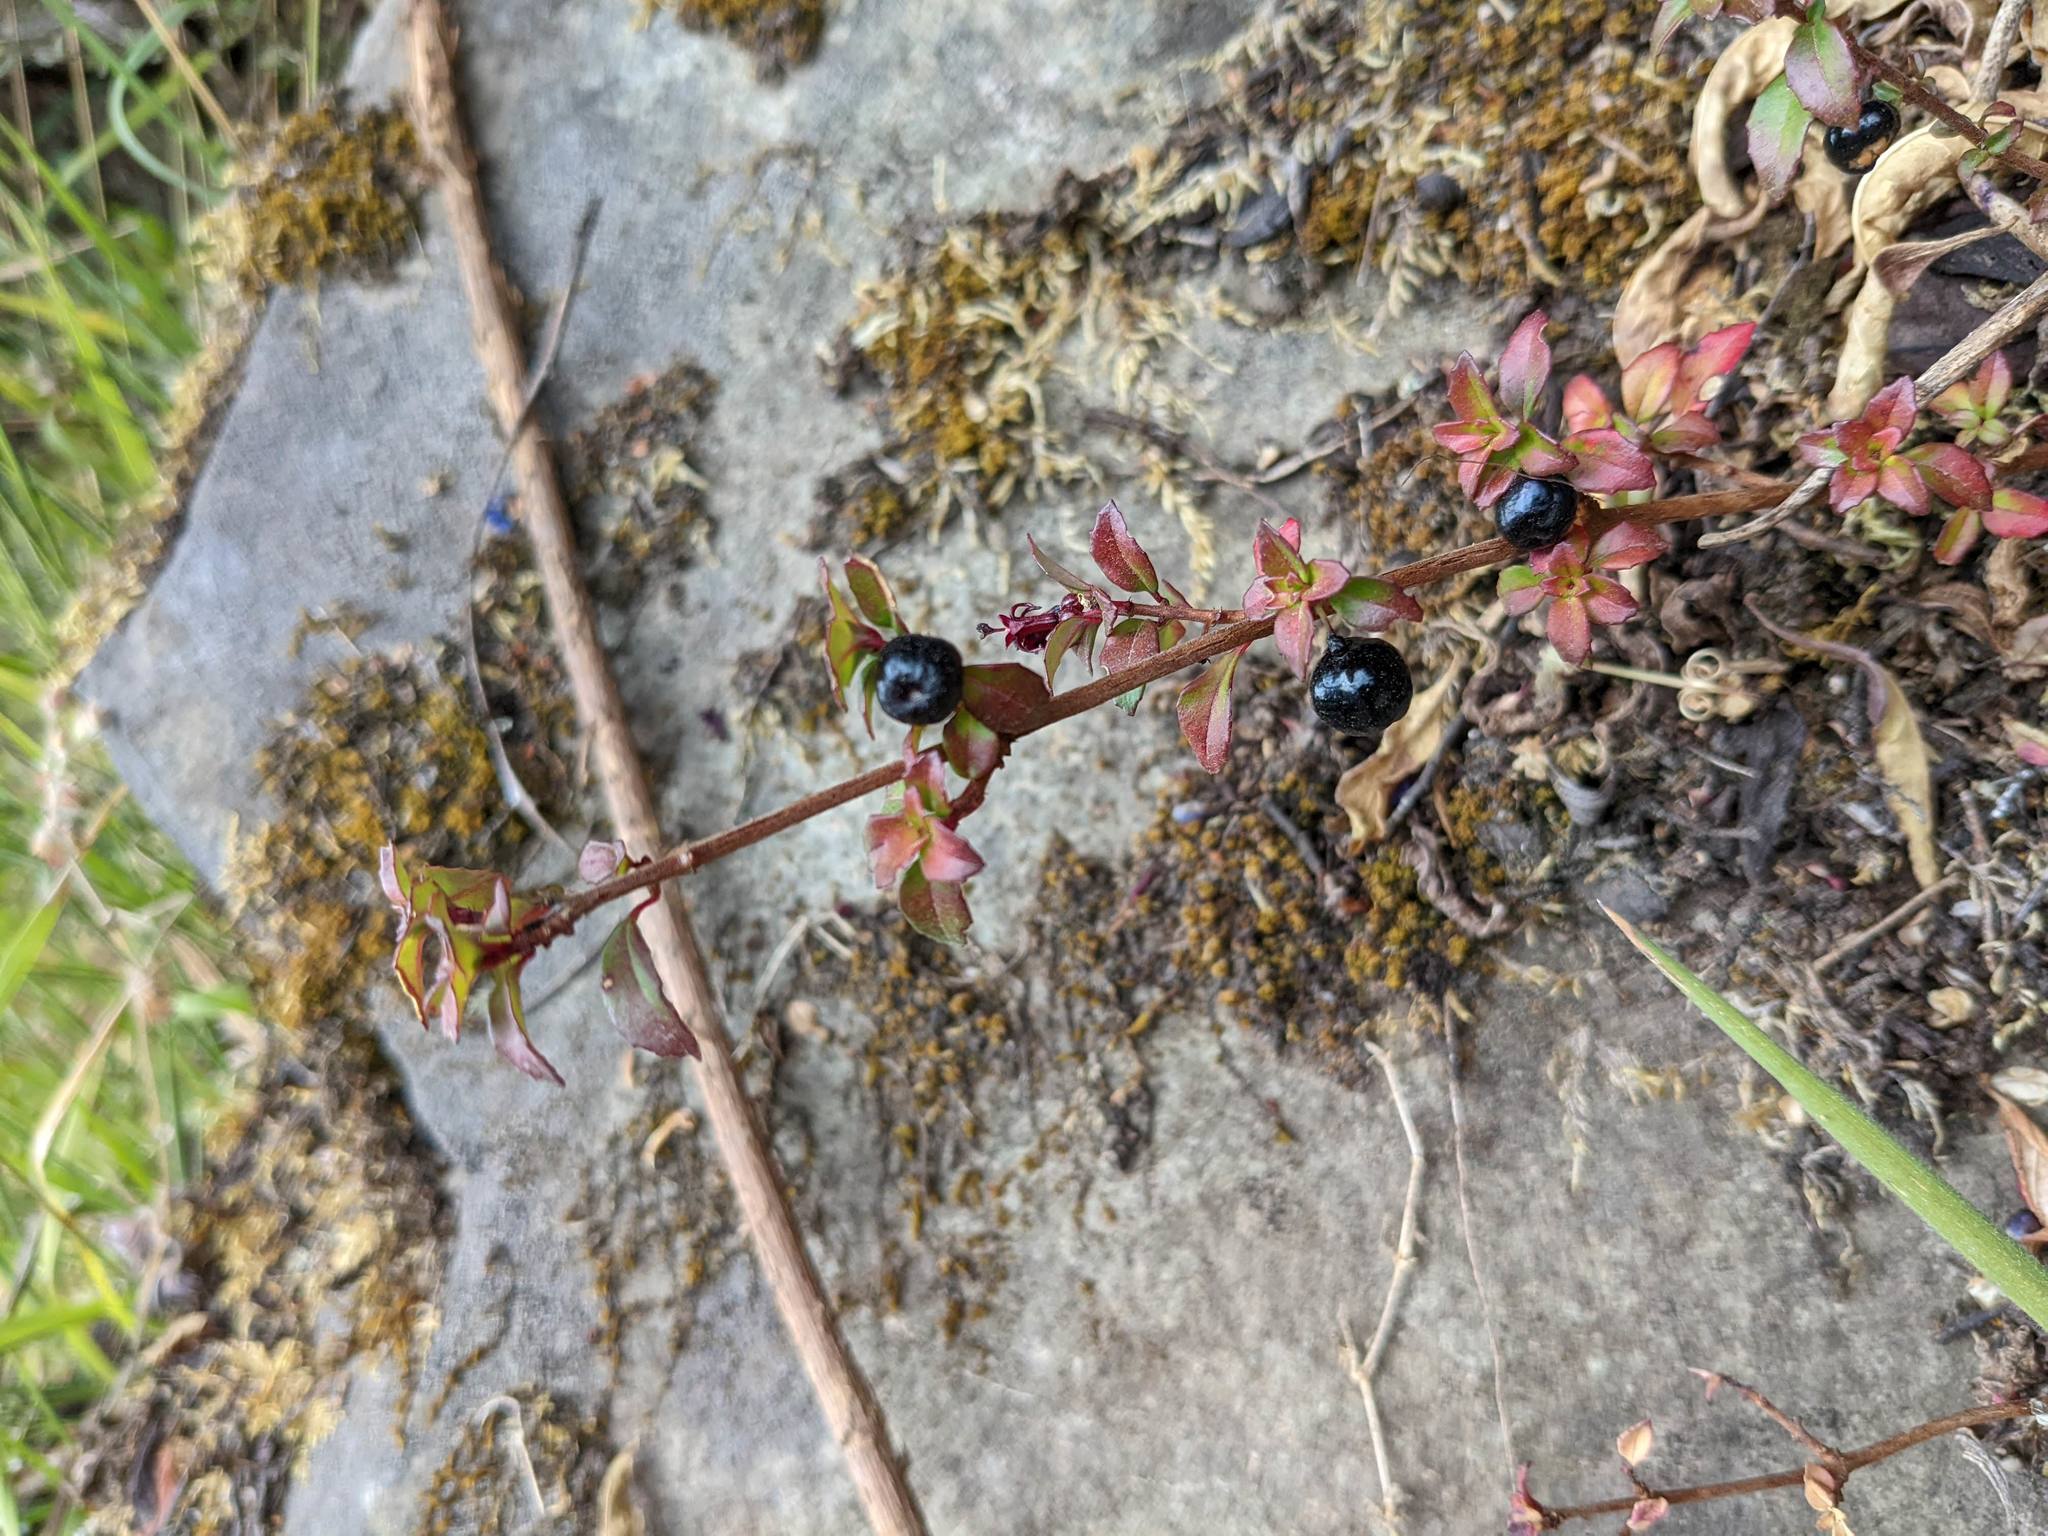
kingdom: Plantae
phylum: Tracheophyta
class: Magnoliopsida
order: Myrtales
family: Onagraceae
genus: Fuchsia
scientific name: Fuchsia microphylla
